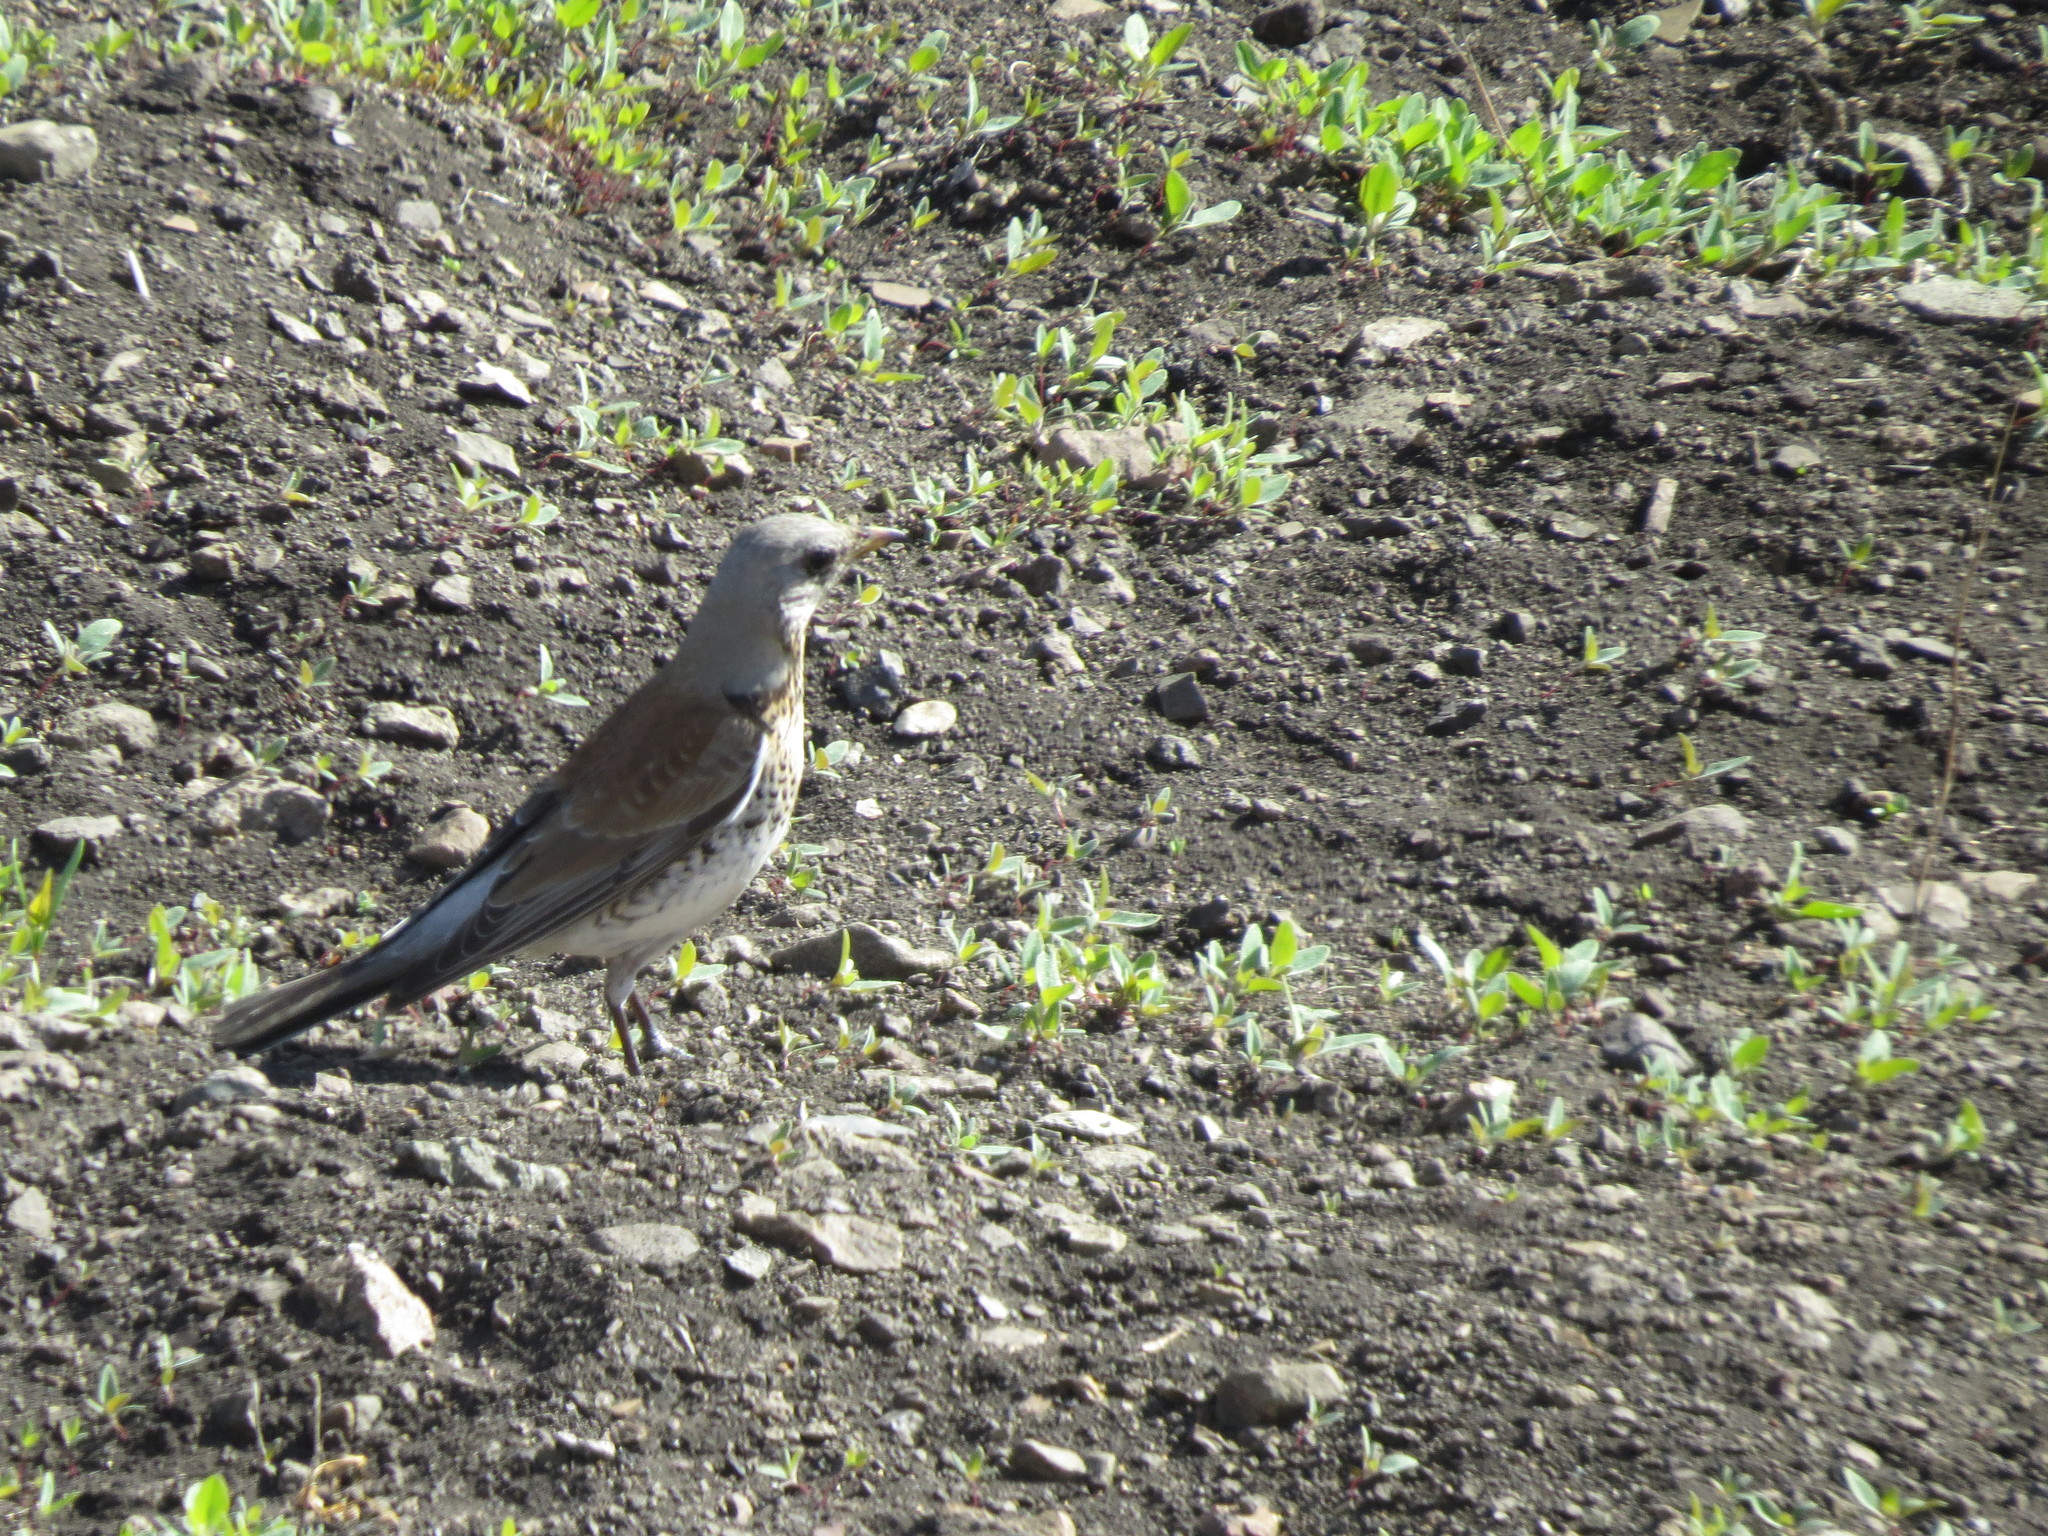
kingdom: Animalia
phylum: Chordata
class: Aves
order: Passeriformes
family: Turdidae
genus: Turdus
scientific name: Turdus pilaris
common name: Fieldfare
